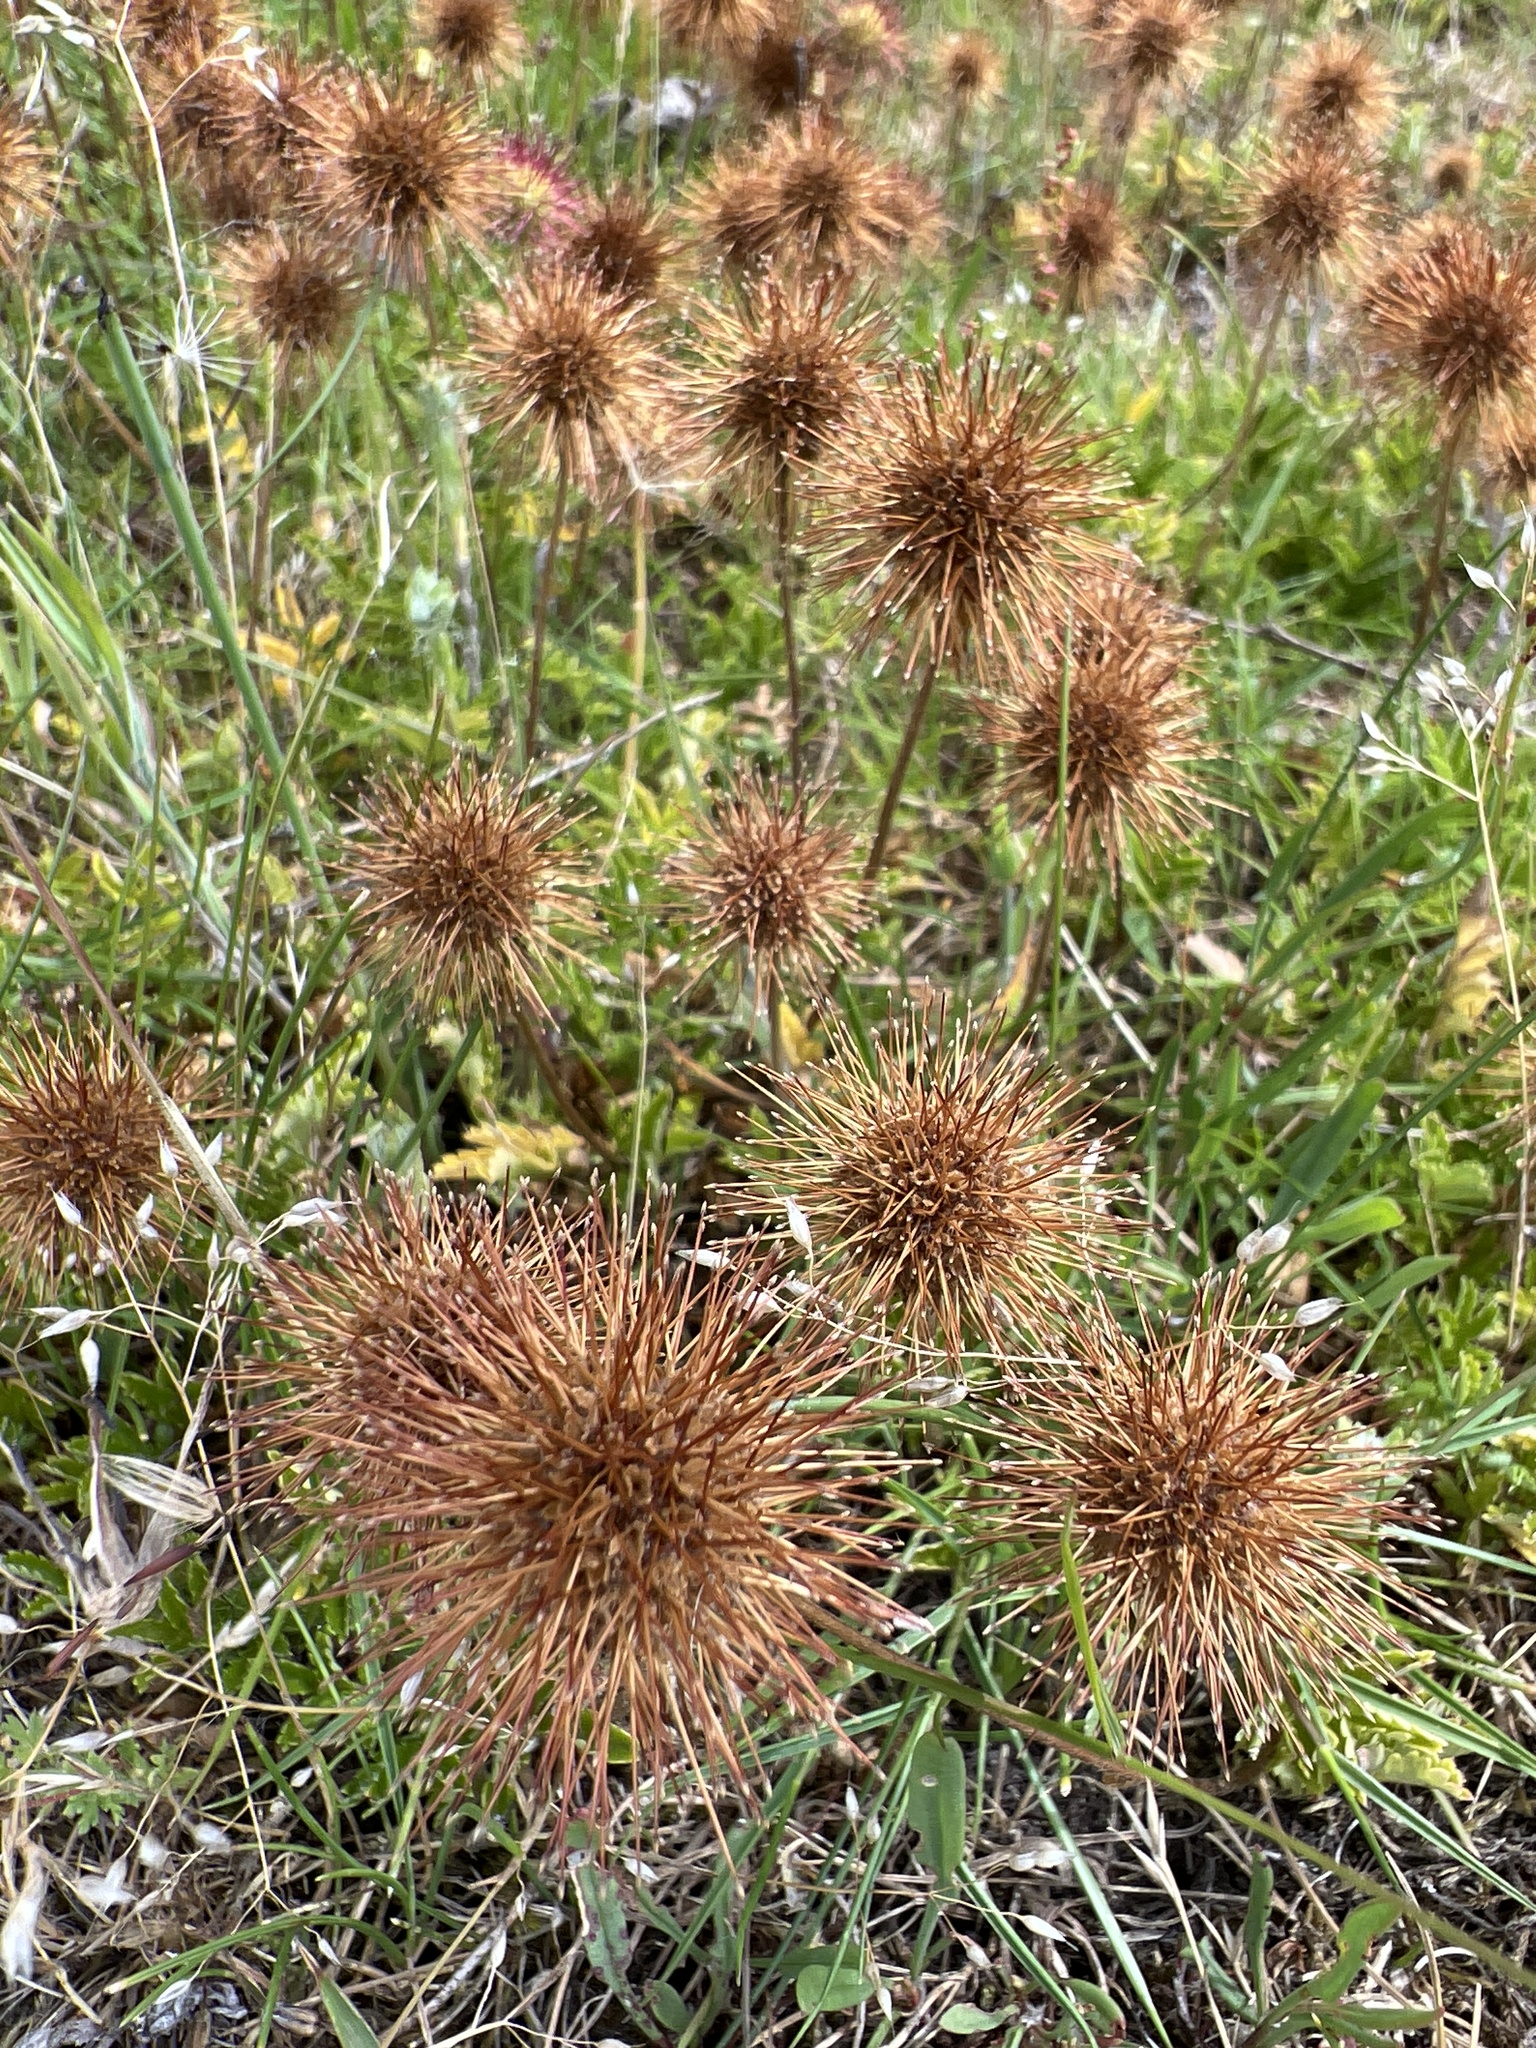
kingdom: Plantae
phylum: Tracheophyta
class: Magnoliopsida
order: Rosales
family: Rosaceae
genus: Acaena
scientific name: Acaena novae-zelandiae
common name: Pirri-pirri-bur
